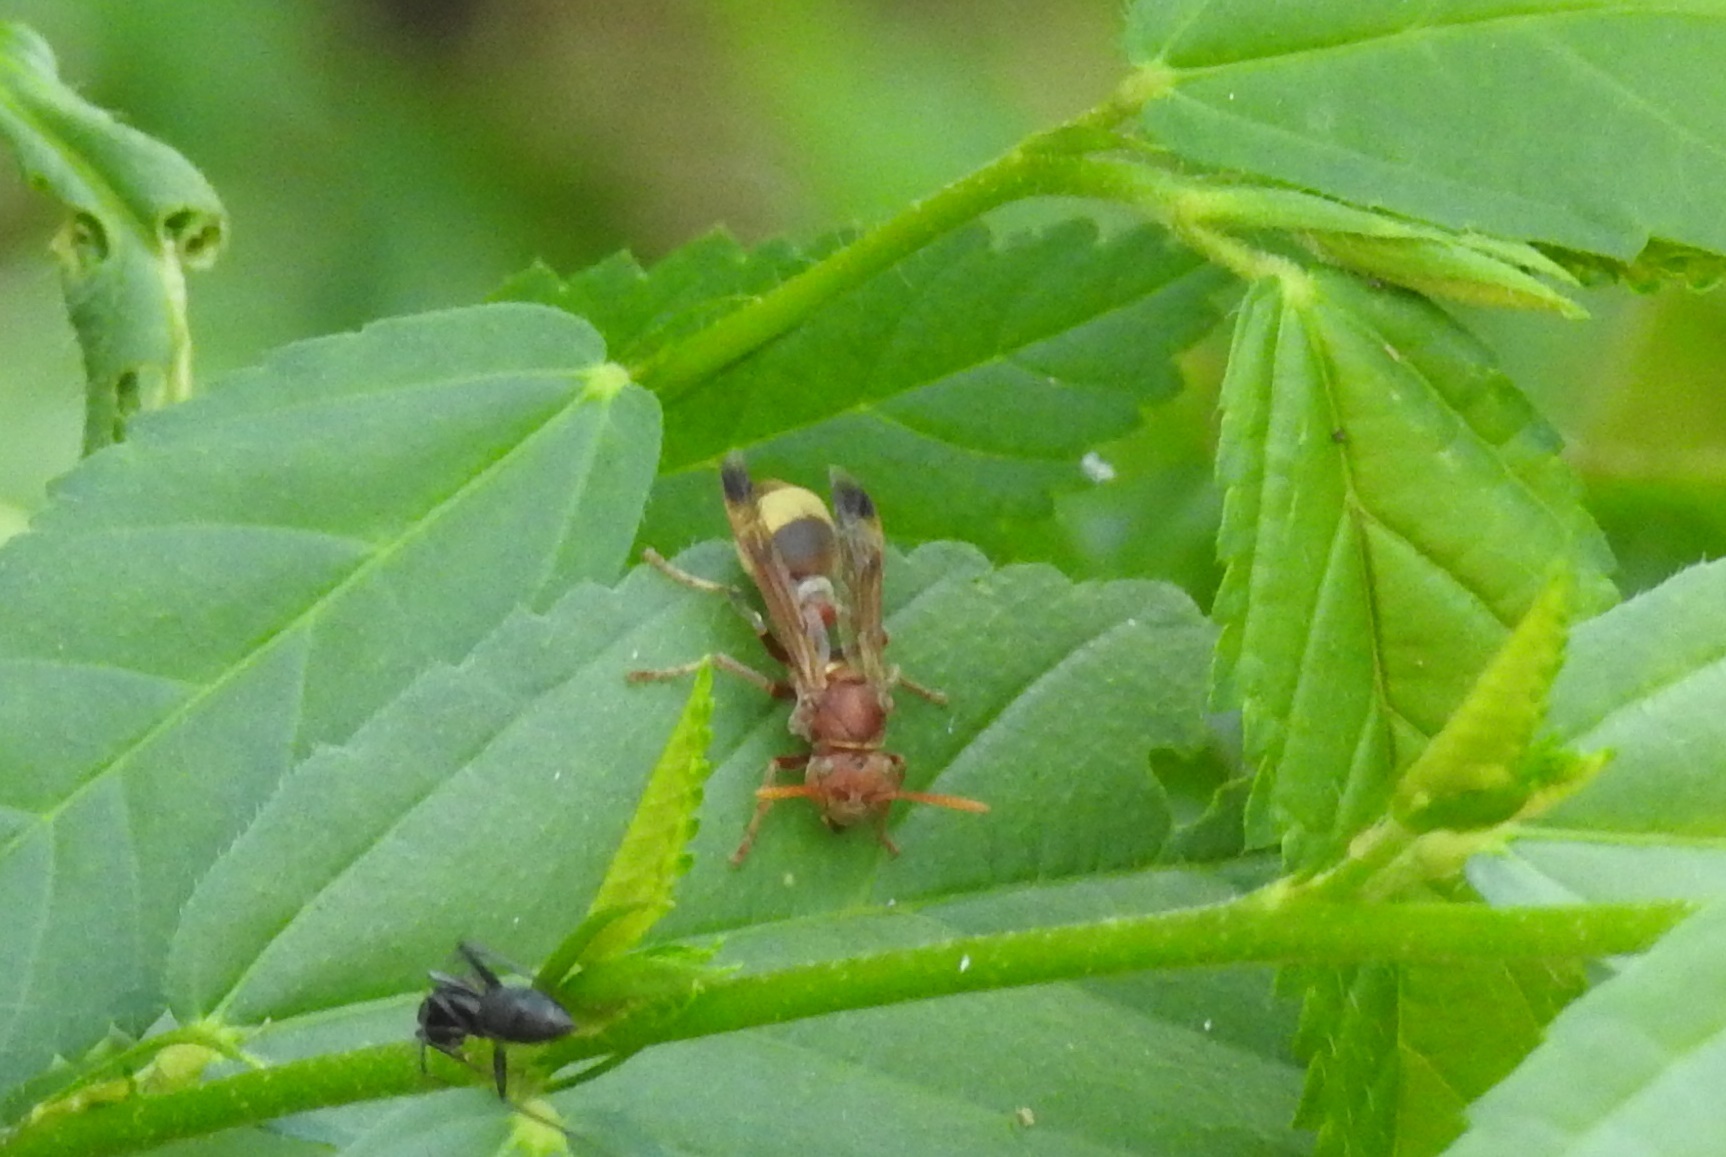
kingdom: Animalia
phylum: Arthropoda
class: Insecta
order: Hymenoptera
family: Vespidae
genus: Ropalidia
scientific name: Ropalidia
